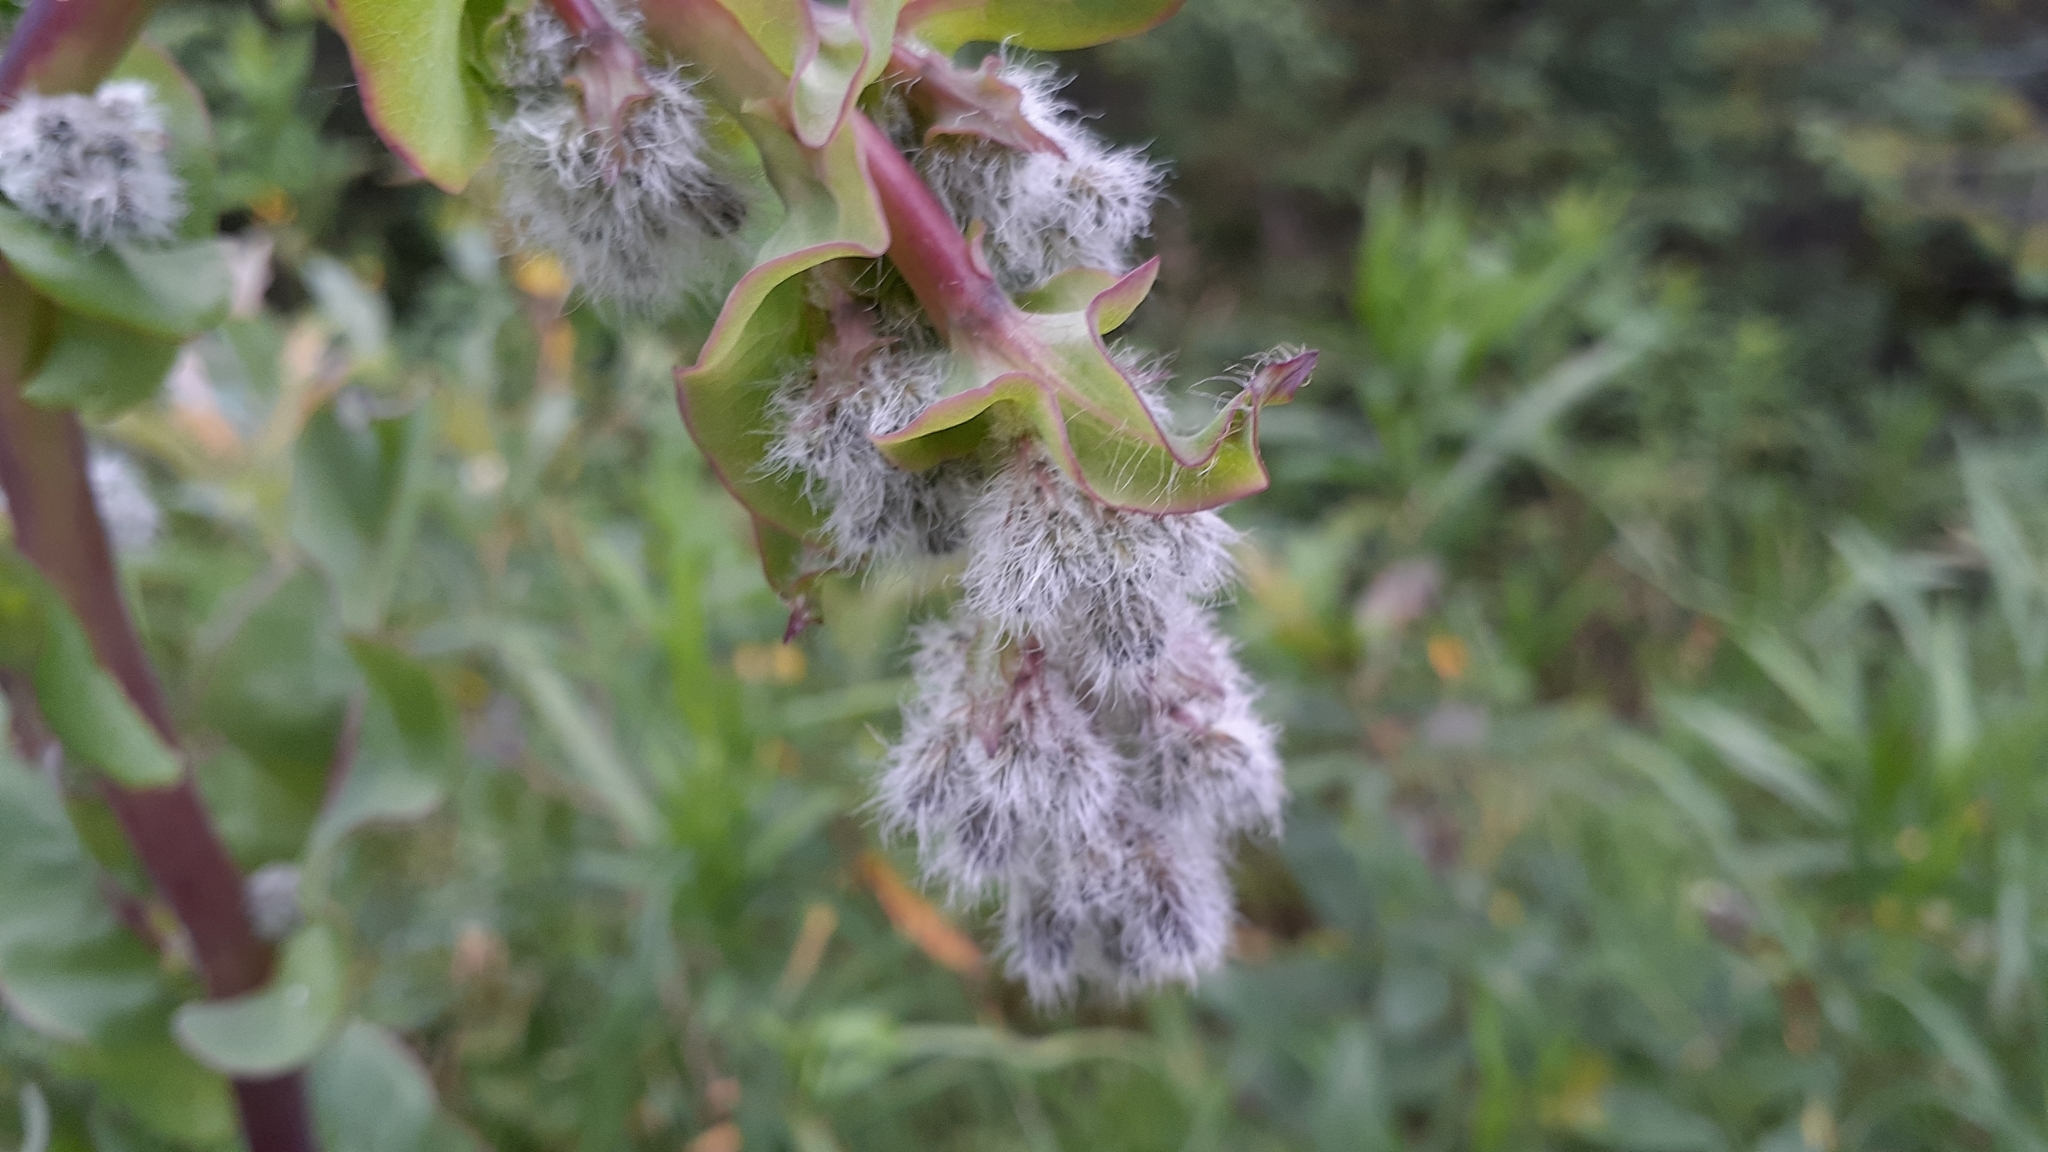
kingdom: Plantae
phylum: Tracheophyta
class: Magnoliopsida
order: Asterales
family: Asteraceae
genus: Nabalus
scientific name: Nabalus racemosus
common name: Glaucous white lettuce
